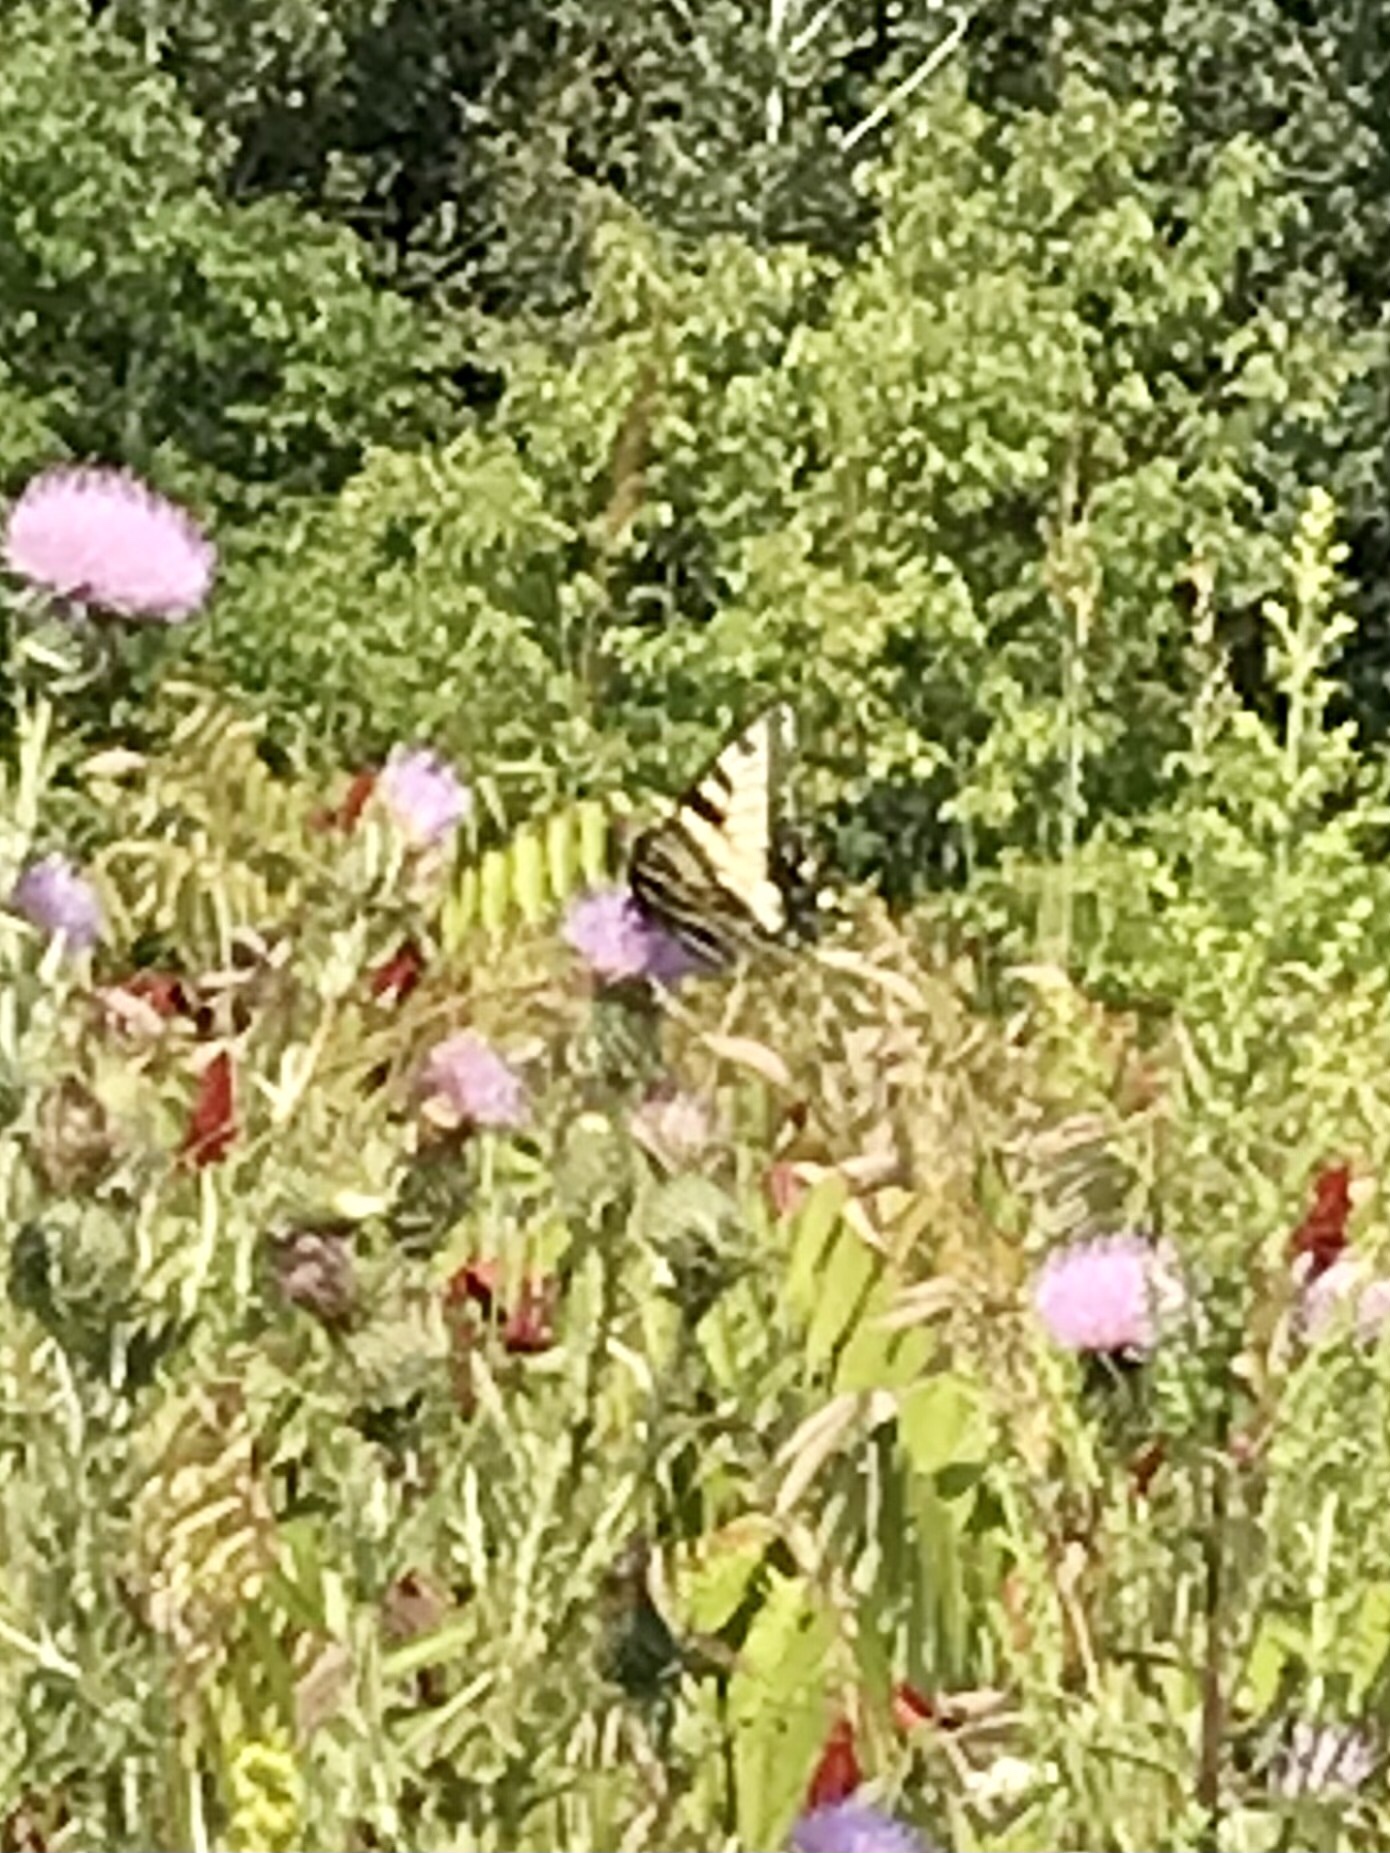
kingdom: Animalia
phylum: Arthropoda
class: Insecta
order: Lepidoptera
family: Papilionidae
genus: Papilio
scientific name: Papilio glaucus
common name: Tiger swallowtail
